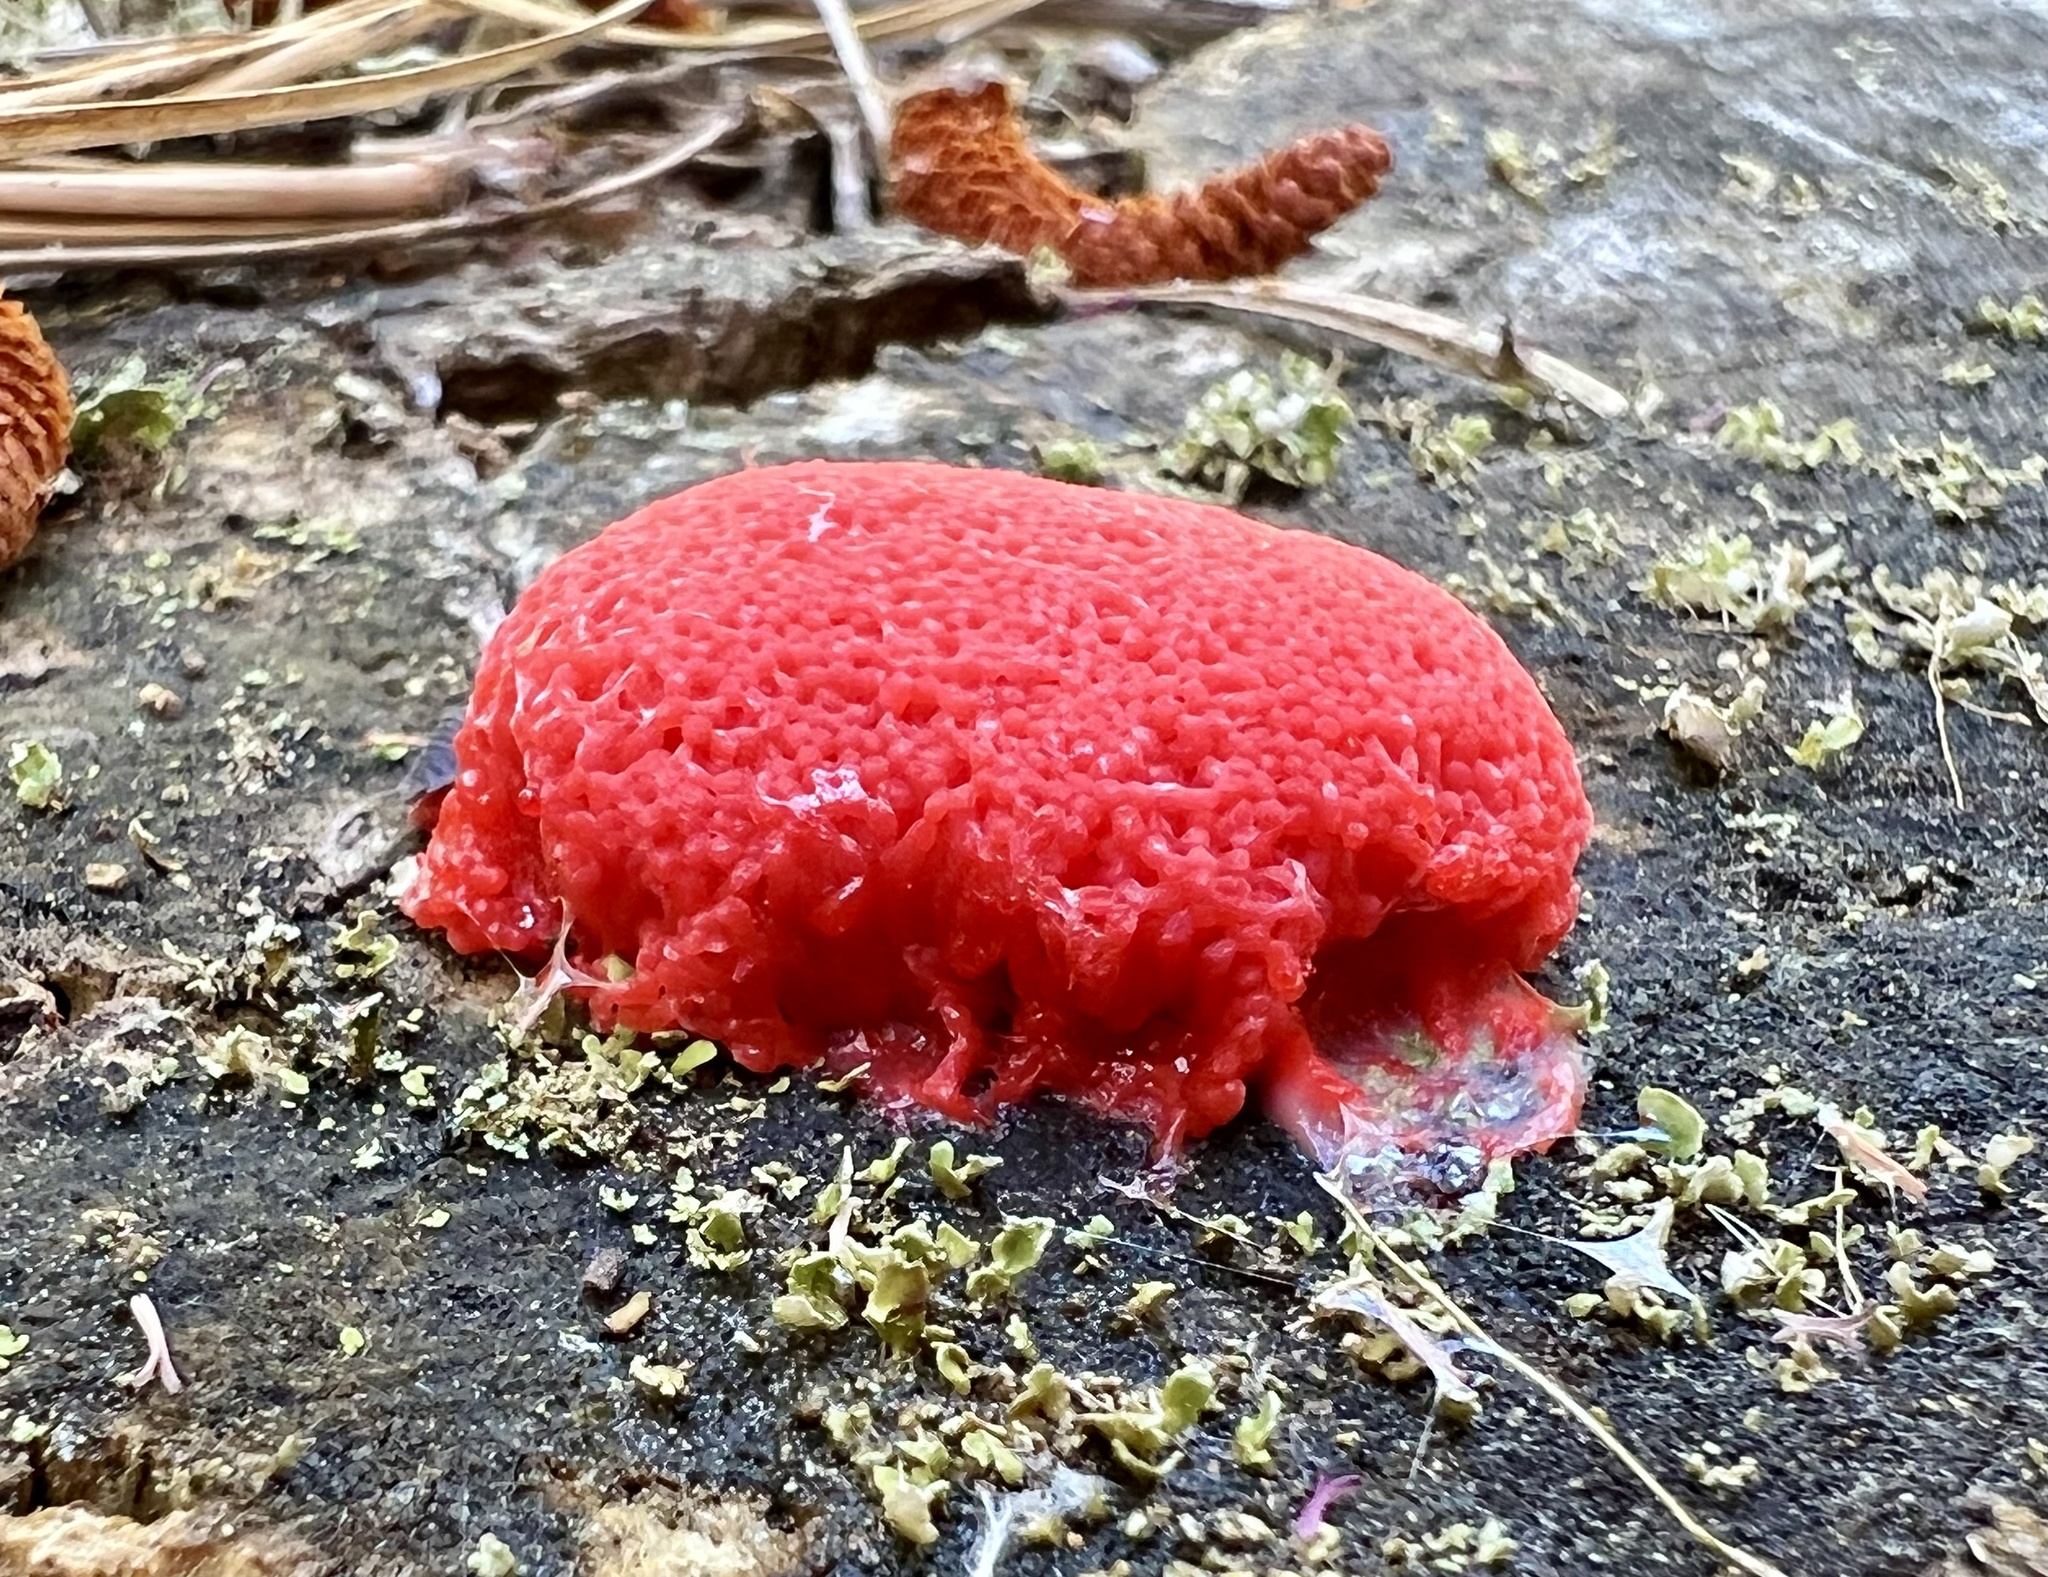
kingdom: Protozoa
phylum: Mycetozoa
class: Myxomycetes
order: Cribrariales
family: Tubiferaceae
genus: Tubifera
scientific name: Tubifera ferruginosa
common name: Red raspberry slime mold
